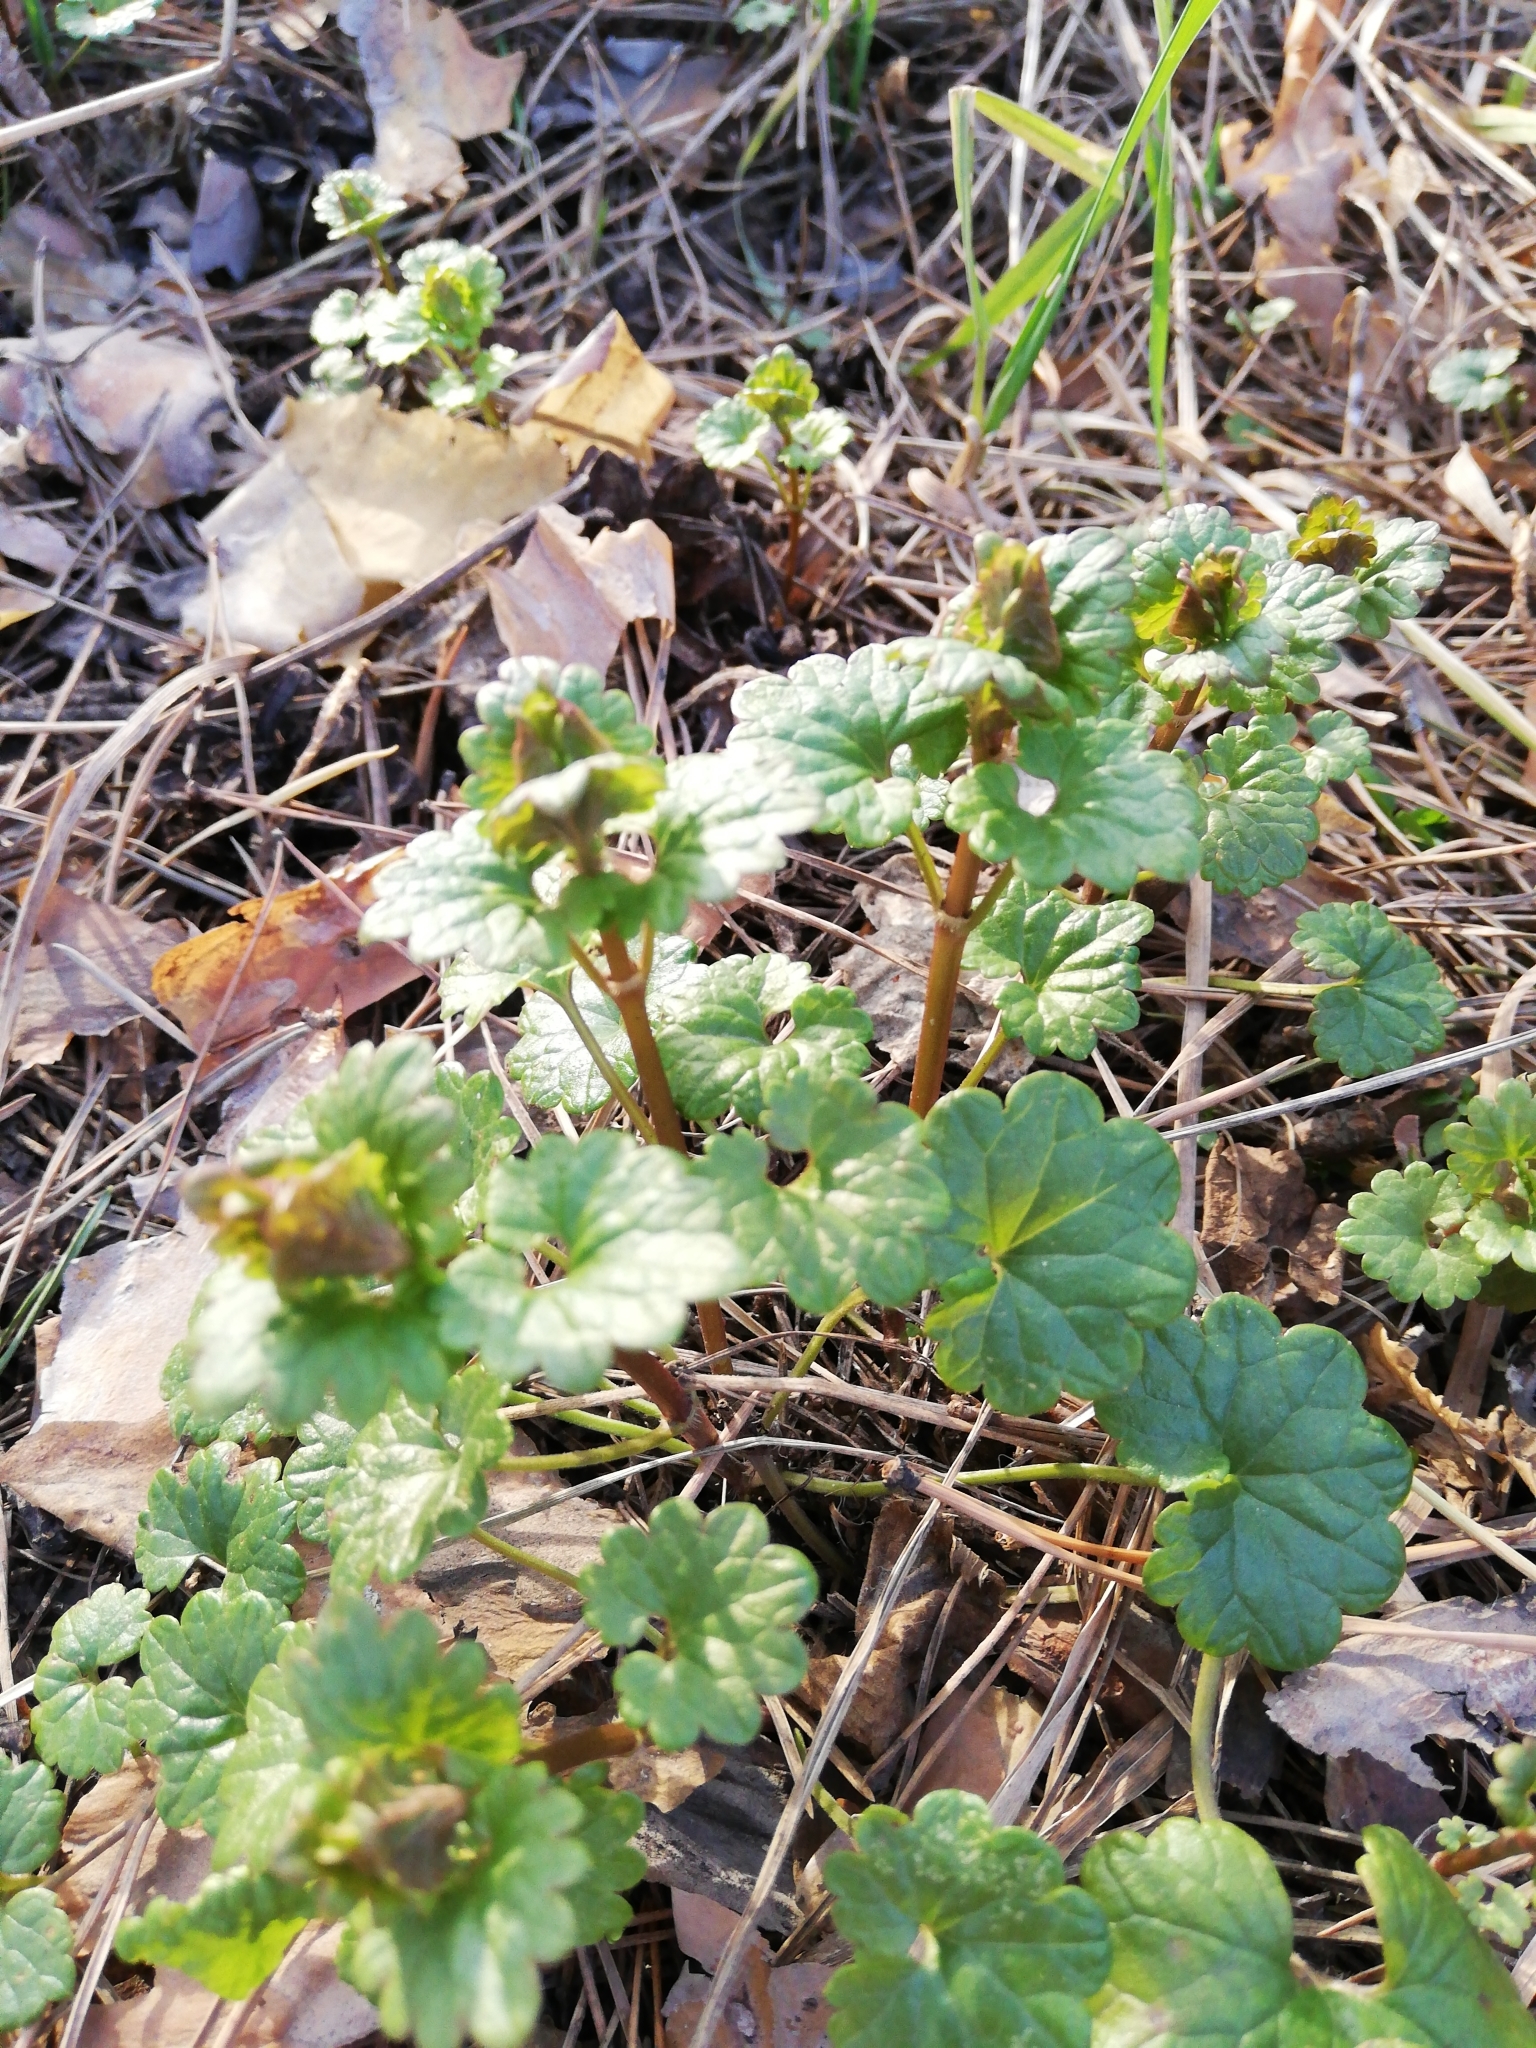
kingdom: Plantae
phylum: Tracheophyta
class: Magnoliopsida
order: Lamiales
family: Lamiaceae
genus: Glechoma
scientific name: Glechoma hederacea
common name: Ground ivy
